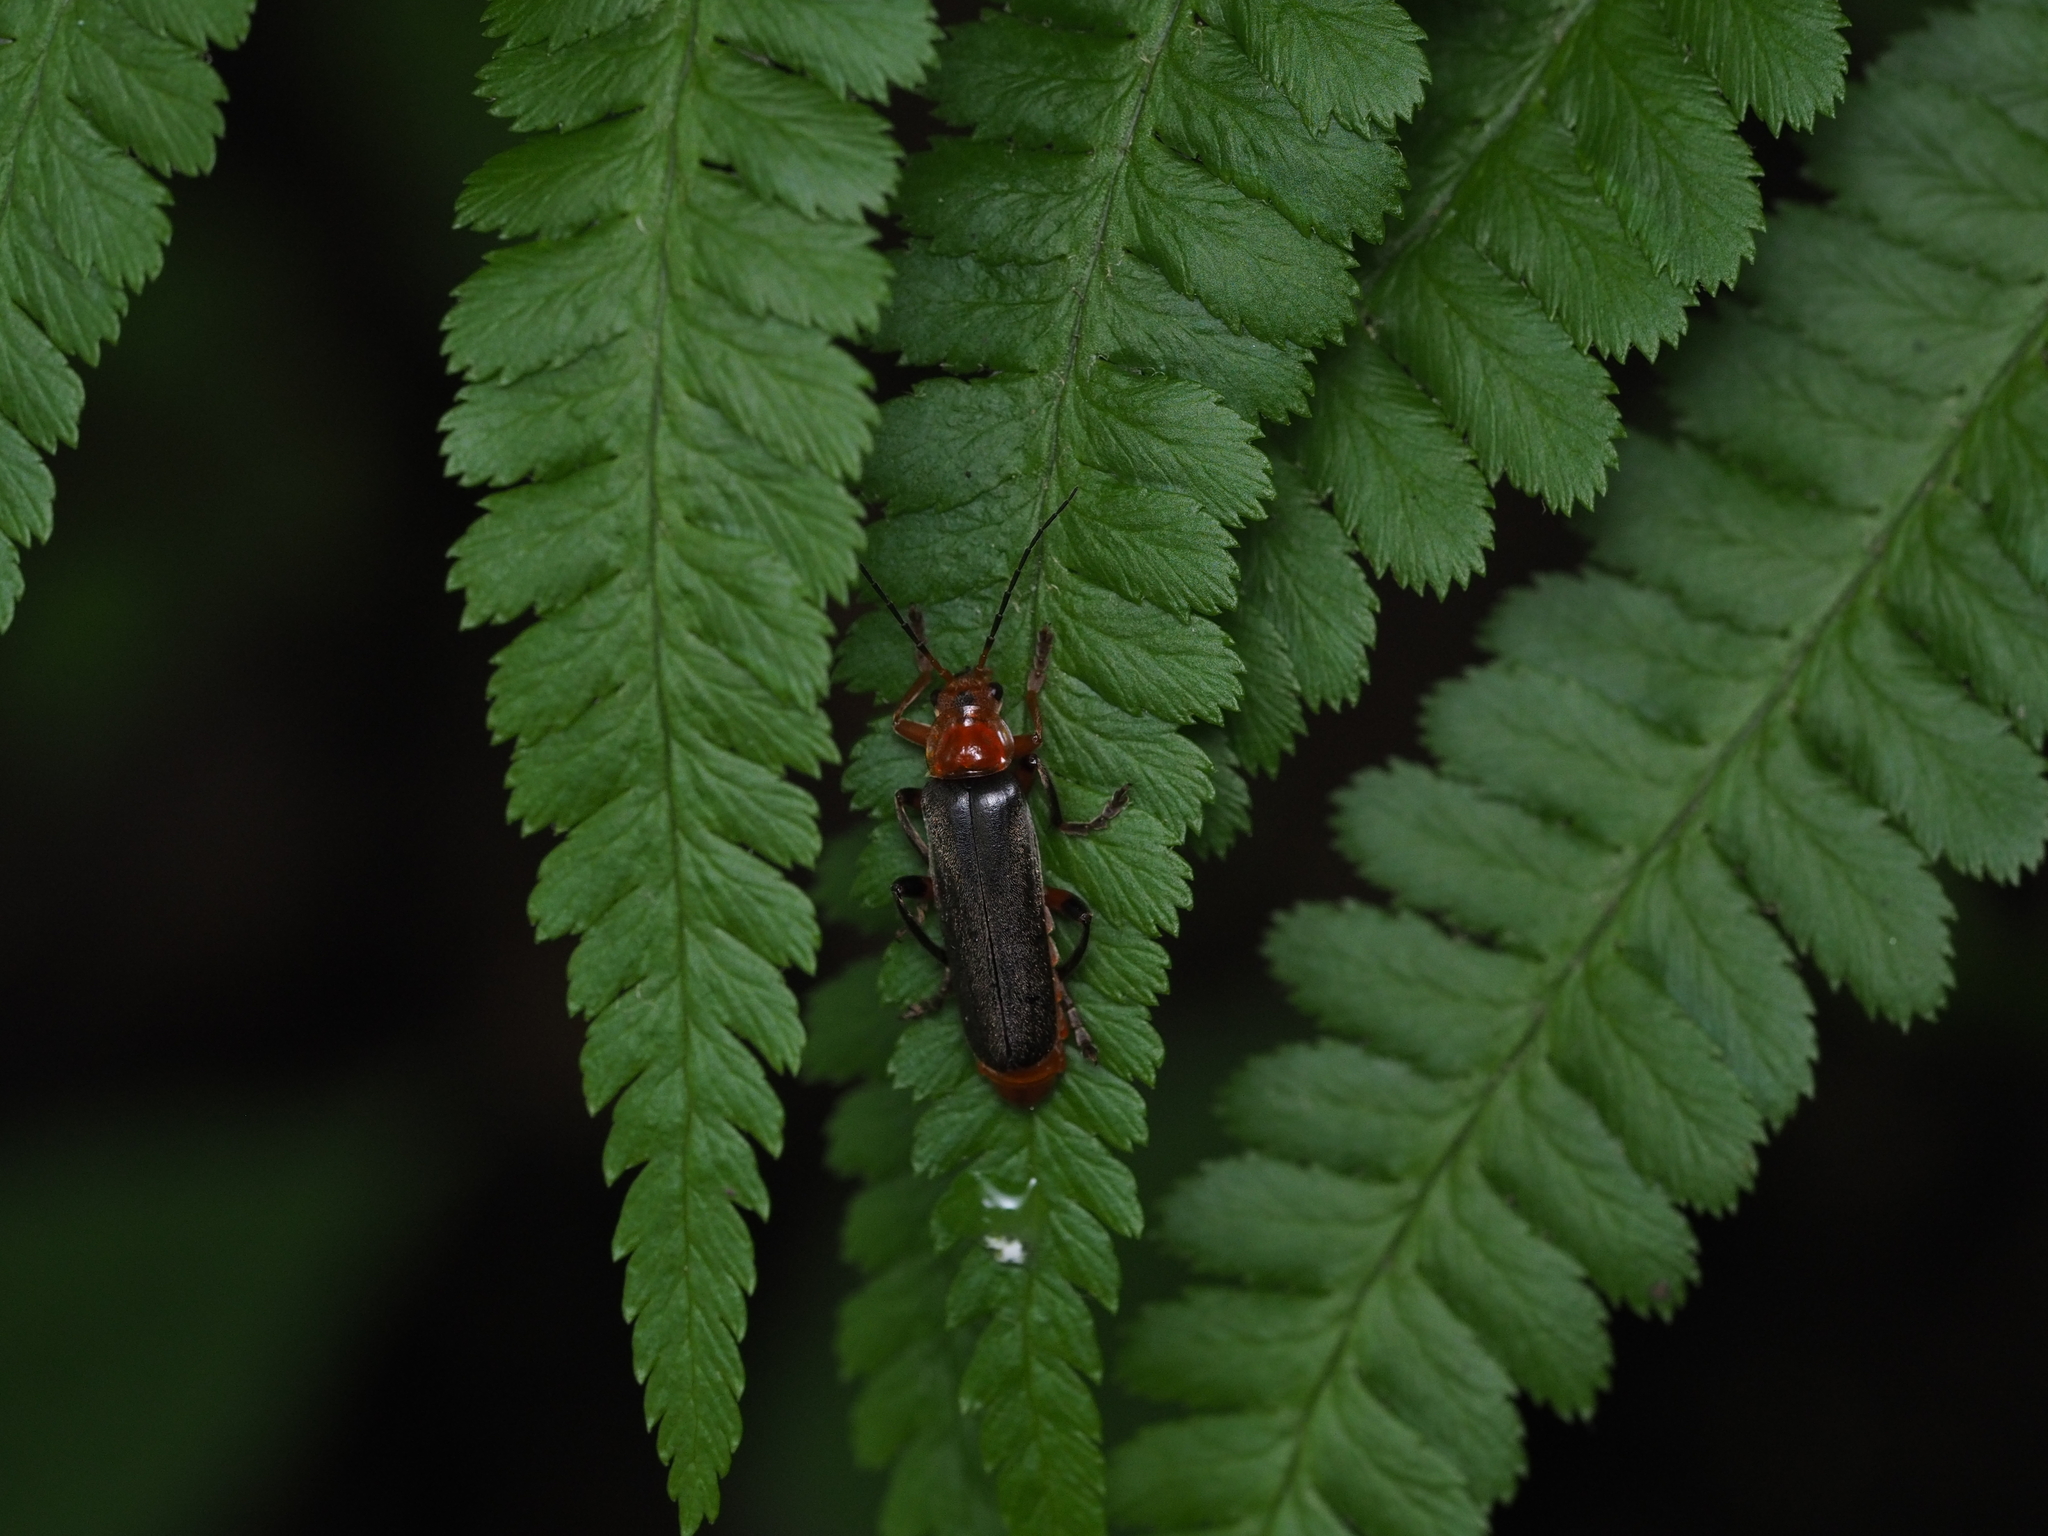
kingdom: Animalia
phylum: Arthropoda
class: Insecta
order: Coleoptera
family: Cantharidae
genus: Cantharis
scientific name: Cantharis livida
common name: Livid soldier beetle
